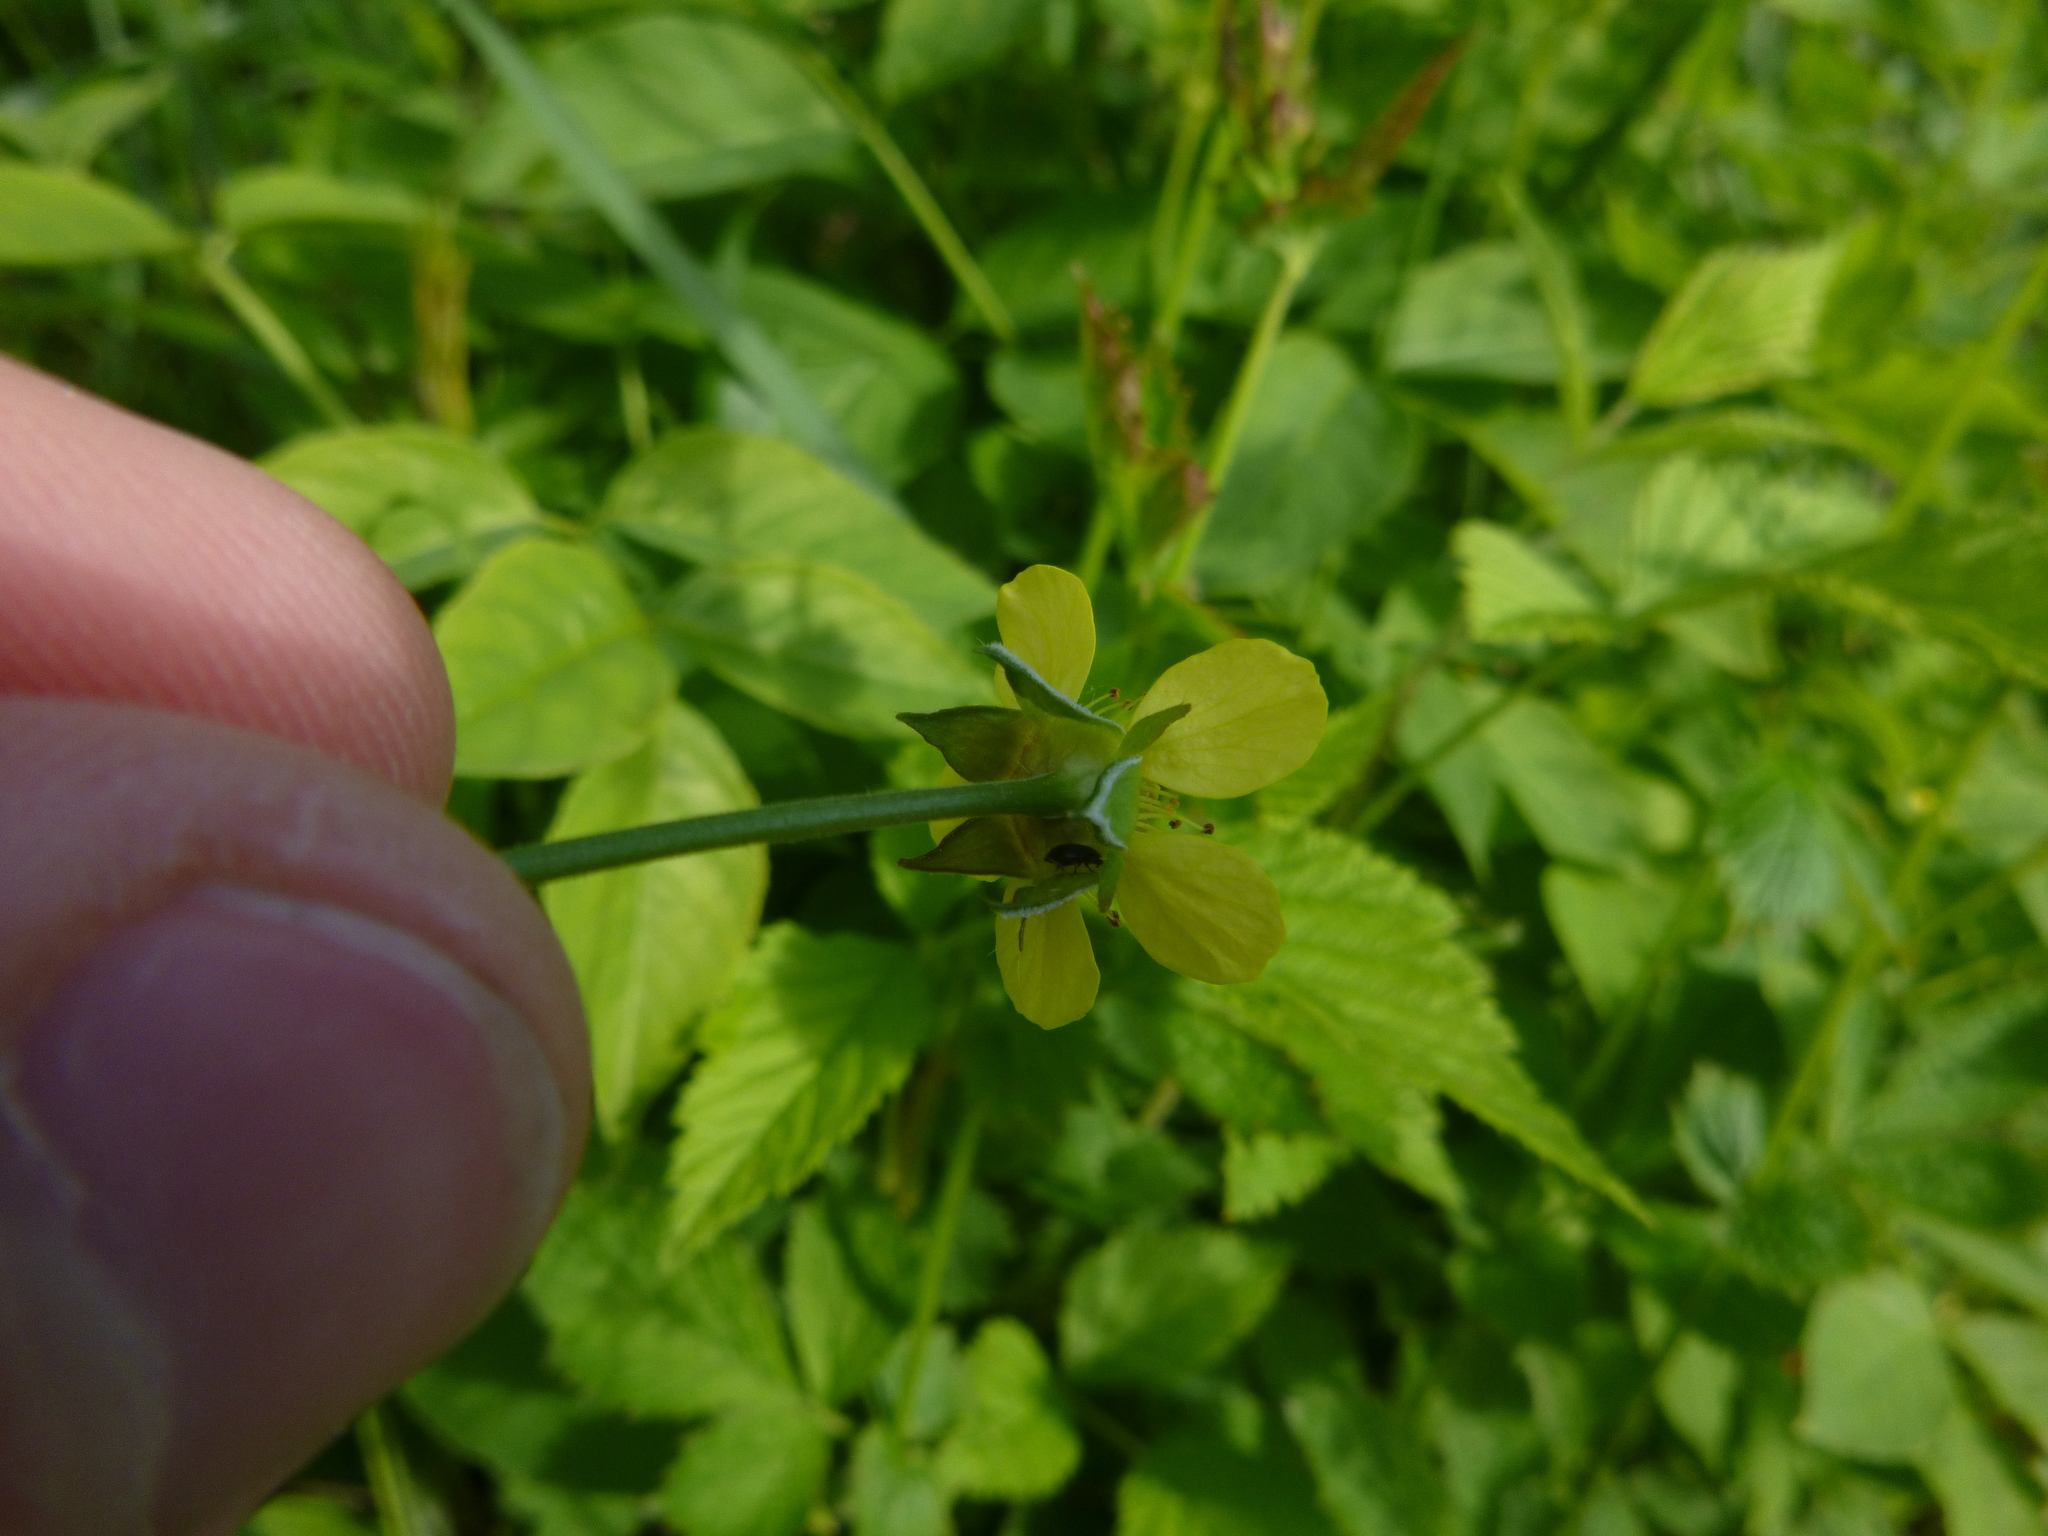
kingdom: Plantae
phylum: Tracheophyta
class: Magnoliopsida
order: Rosales
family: Rosaceae
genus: Geum
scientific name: Geum urbanum
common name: Wood avens
